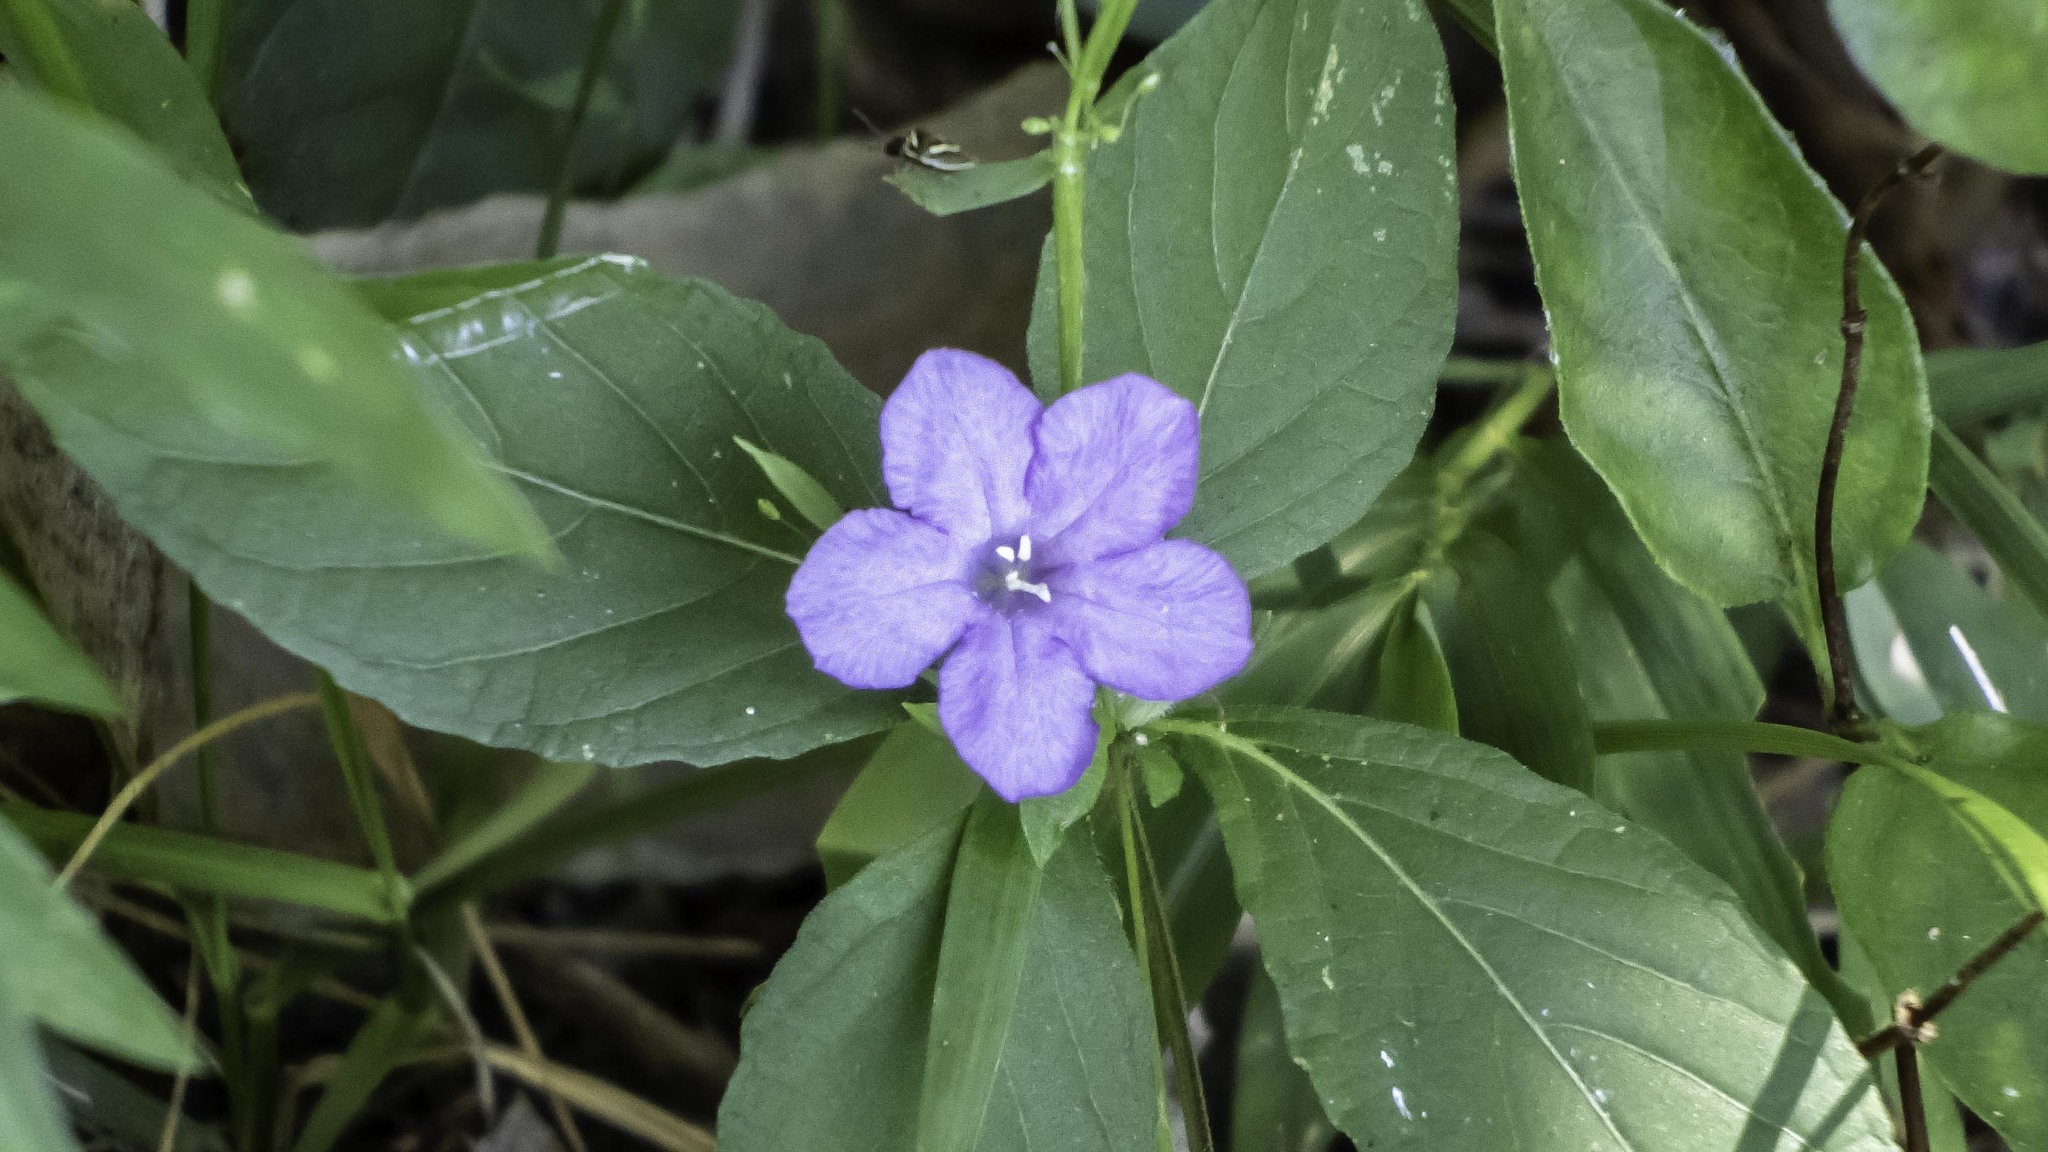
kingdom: Plantae
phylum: Tracheophyta
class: Magnoliopsida
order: Lamiales
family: Acanthaceae
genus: Ruellia
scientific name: Ruellia caroliniensis
